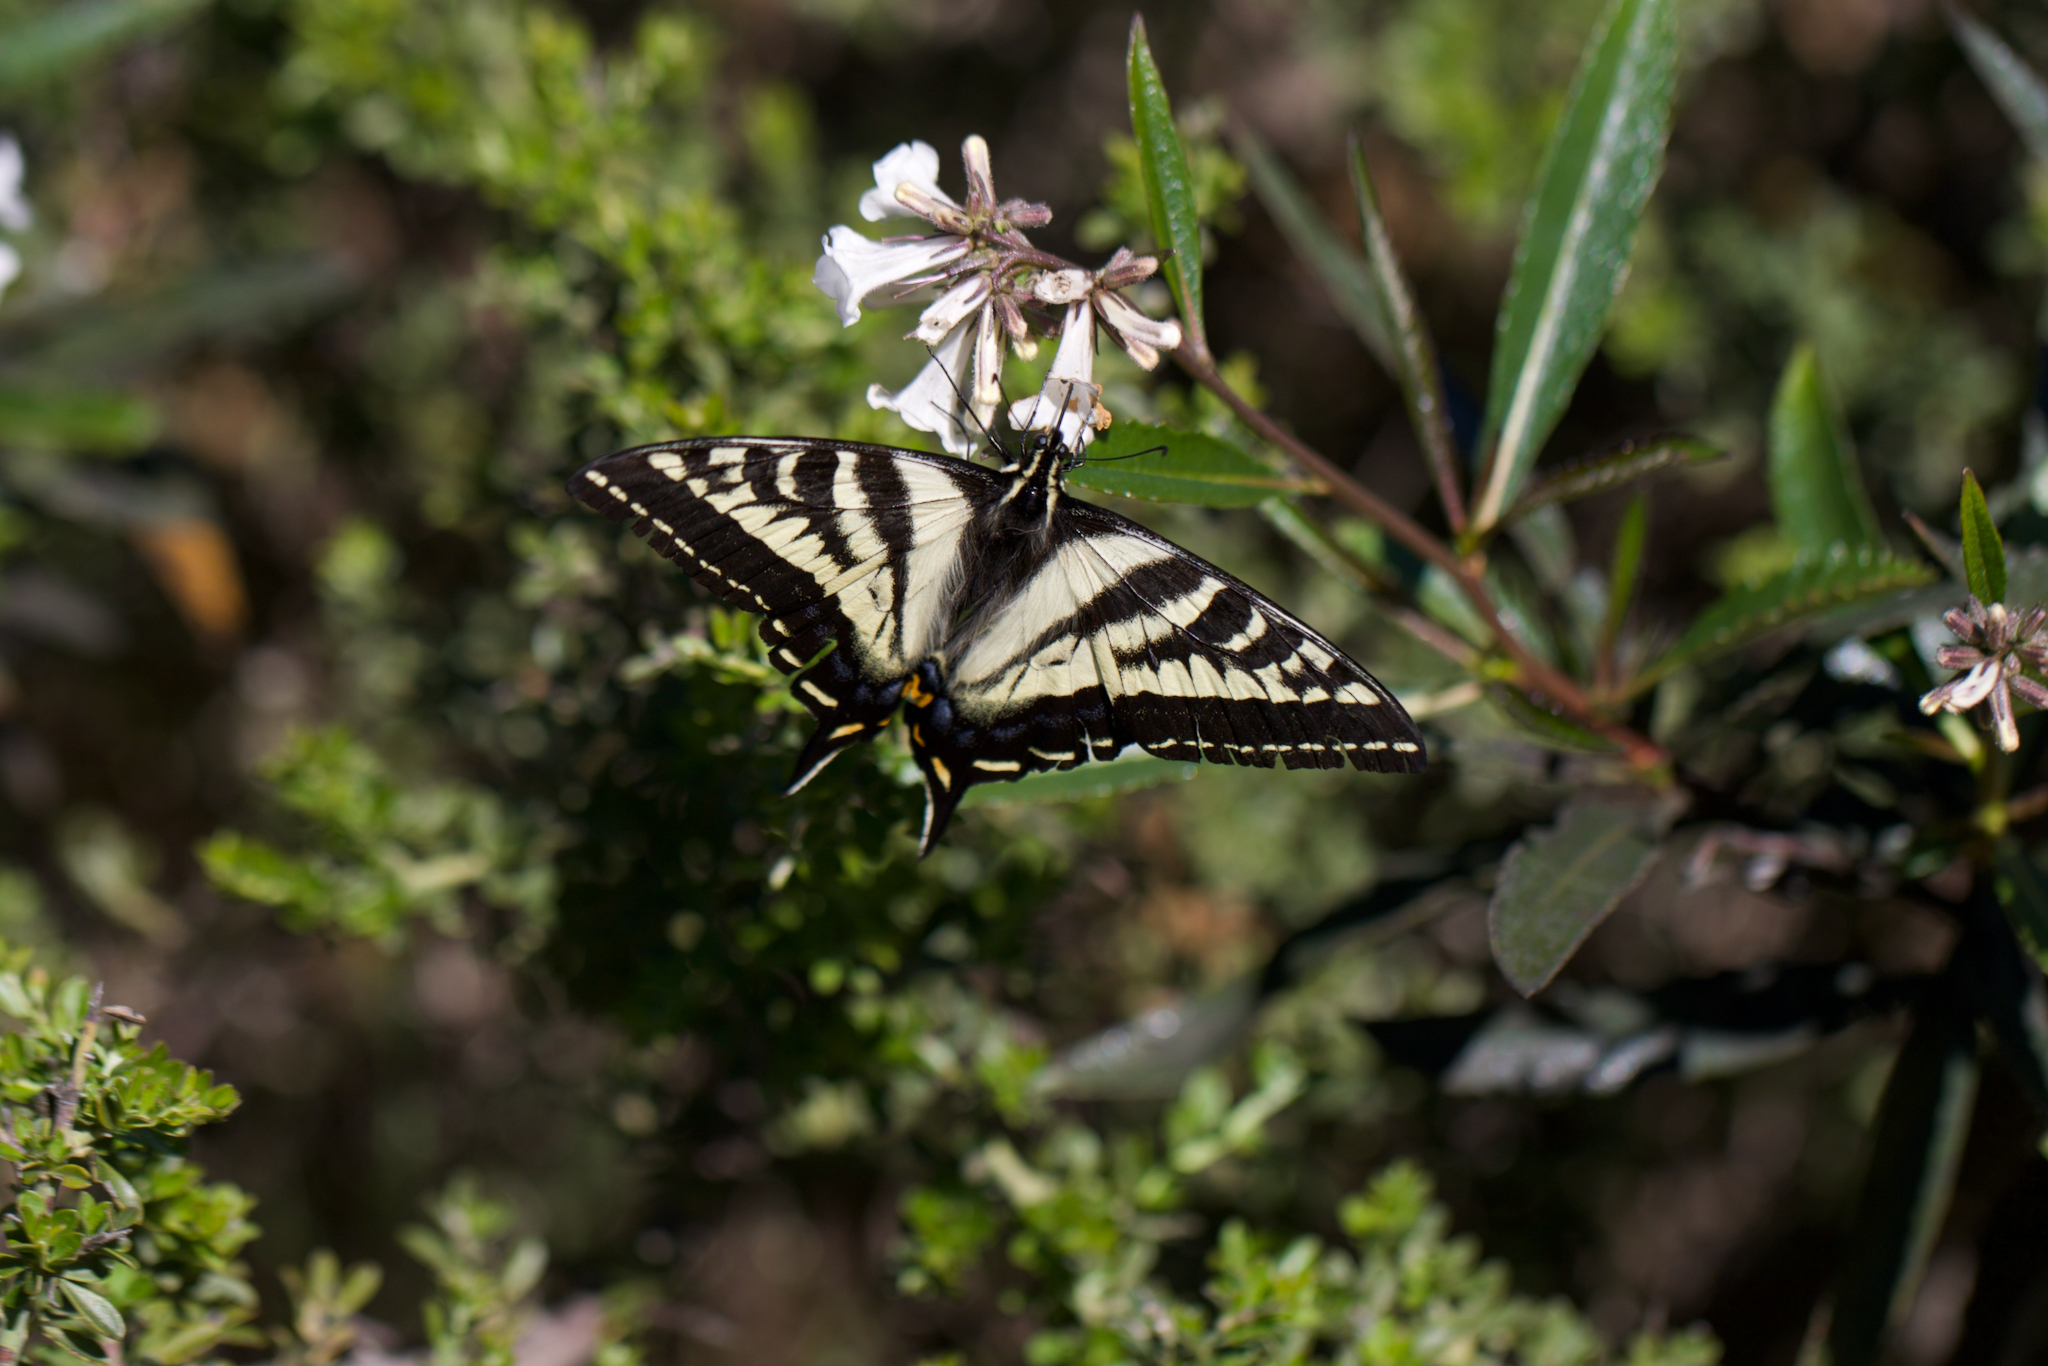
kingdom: Animalia
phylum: Arthropoda
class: Insecta
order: Lepidoptera
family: Papilionidae
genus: Papilio
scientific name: Papilio eurymedon
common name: Pale tiger swallowtail
